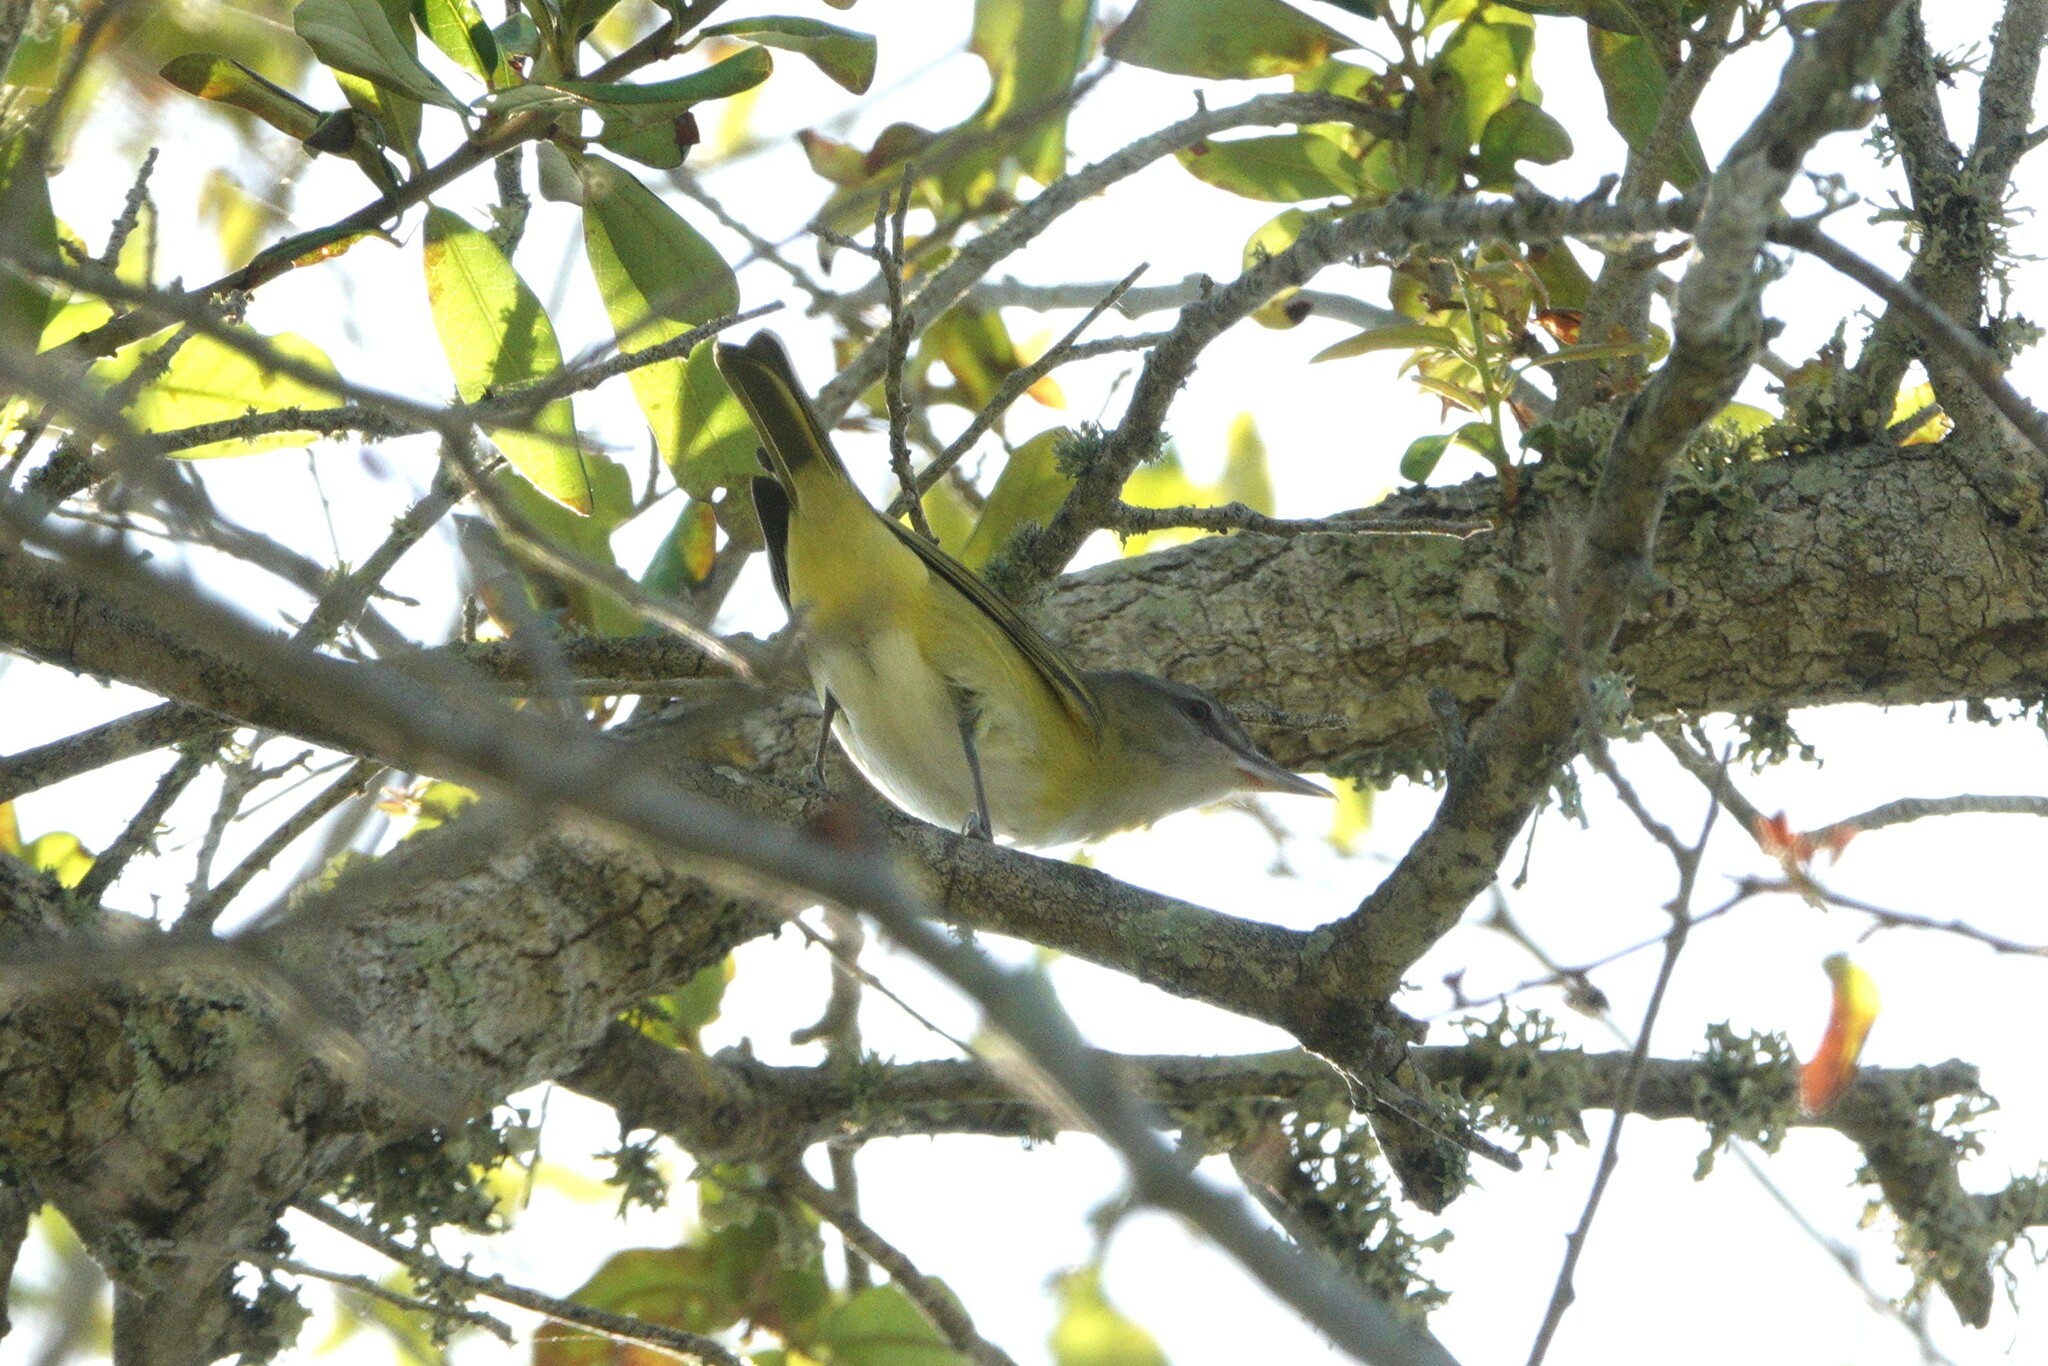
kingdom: Animalia
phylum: Chordata
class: Aves
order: Passeriformes
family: Vireonidae
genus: Vireo
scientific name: Vireo flavoviridis
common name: Yellow-green vireo
